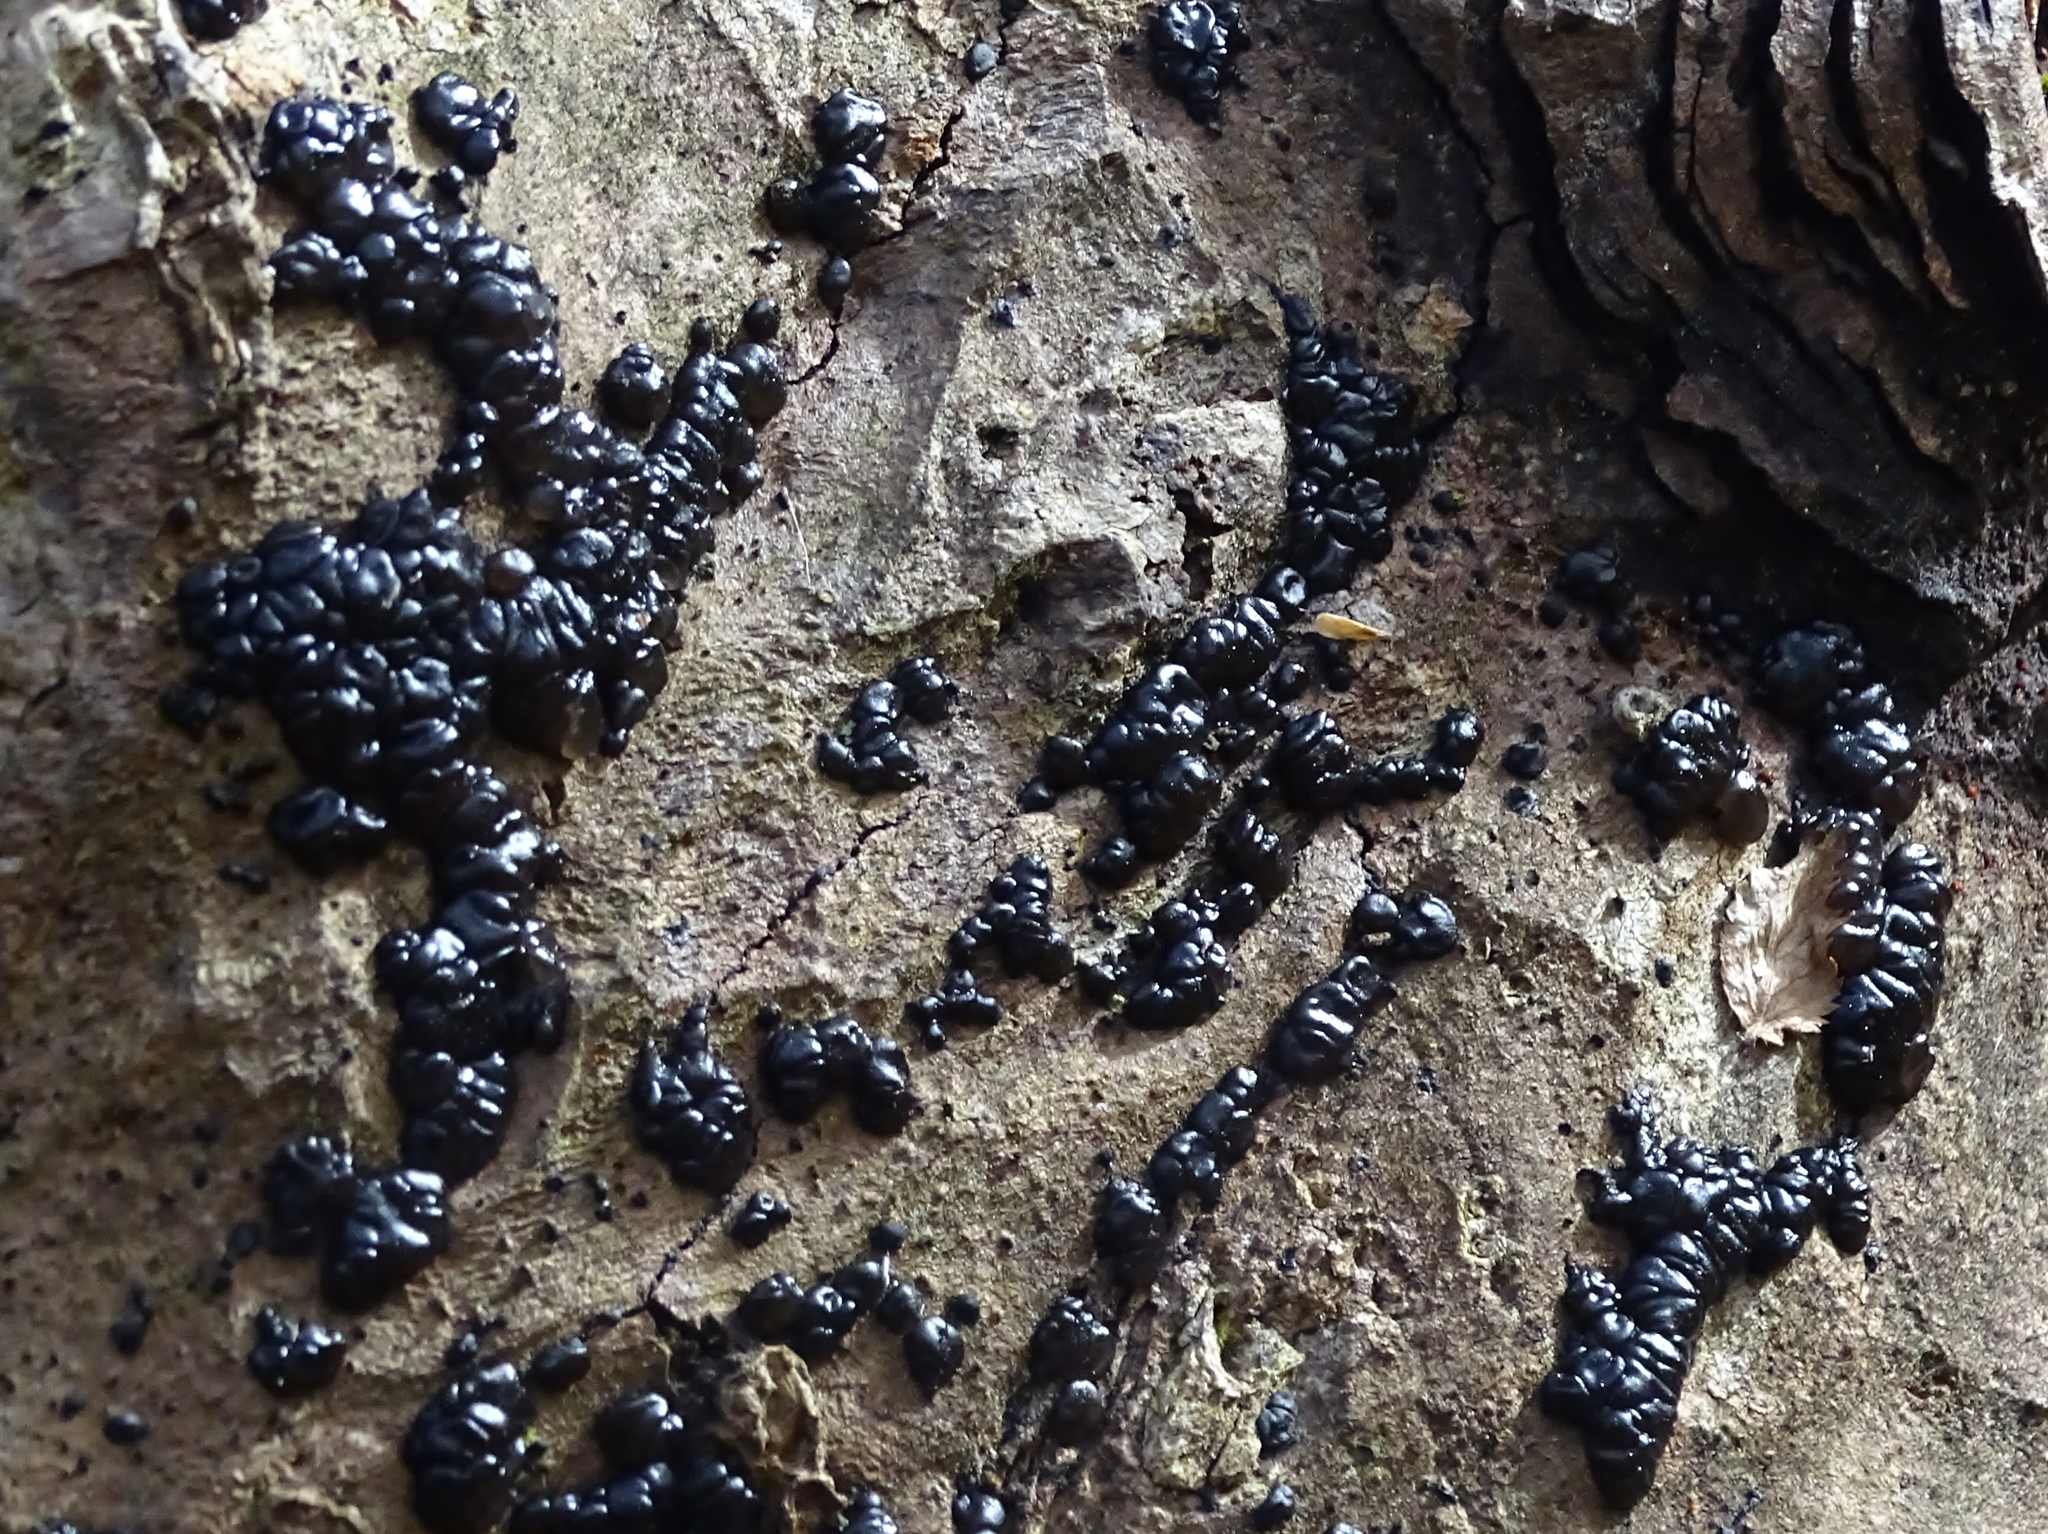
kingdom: Fungi
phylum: Basidiomycota
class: Agaricomycetes
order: Auriculariales
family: Auriculariaceae
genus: Exidia
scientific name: Exidia glandulosa
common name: Witches' butter
